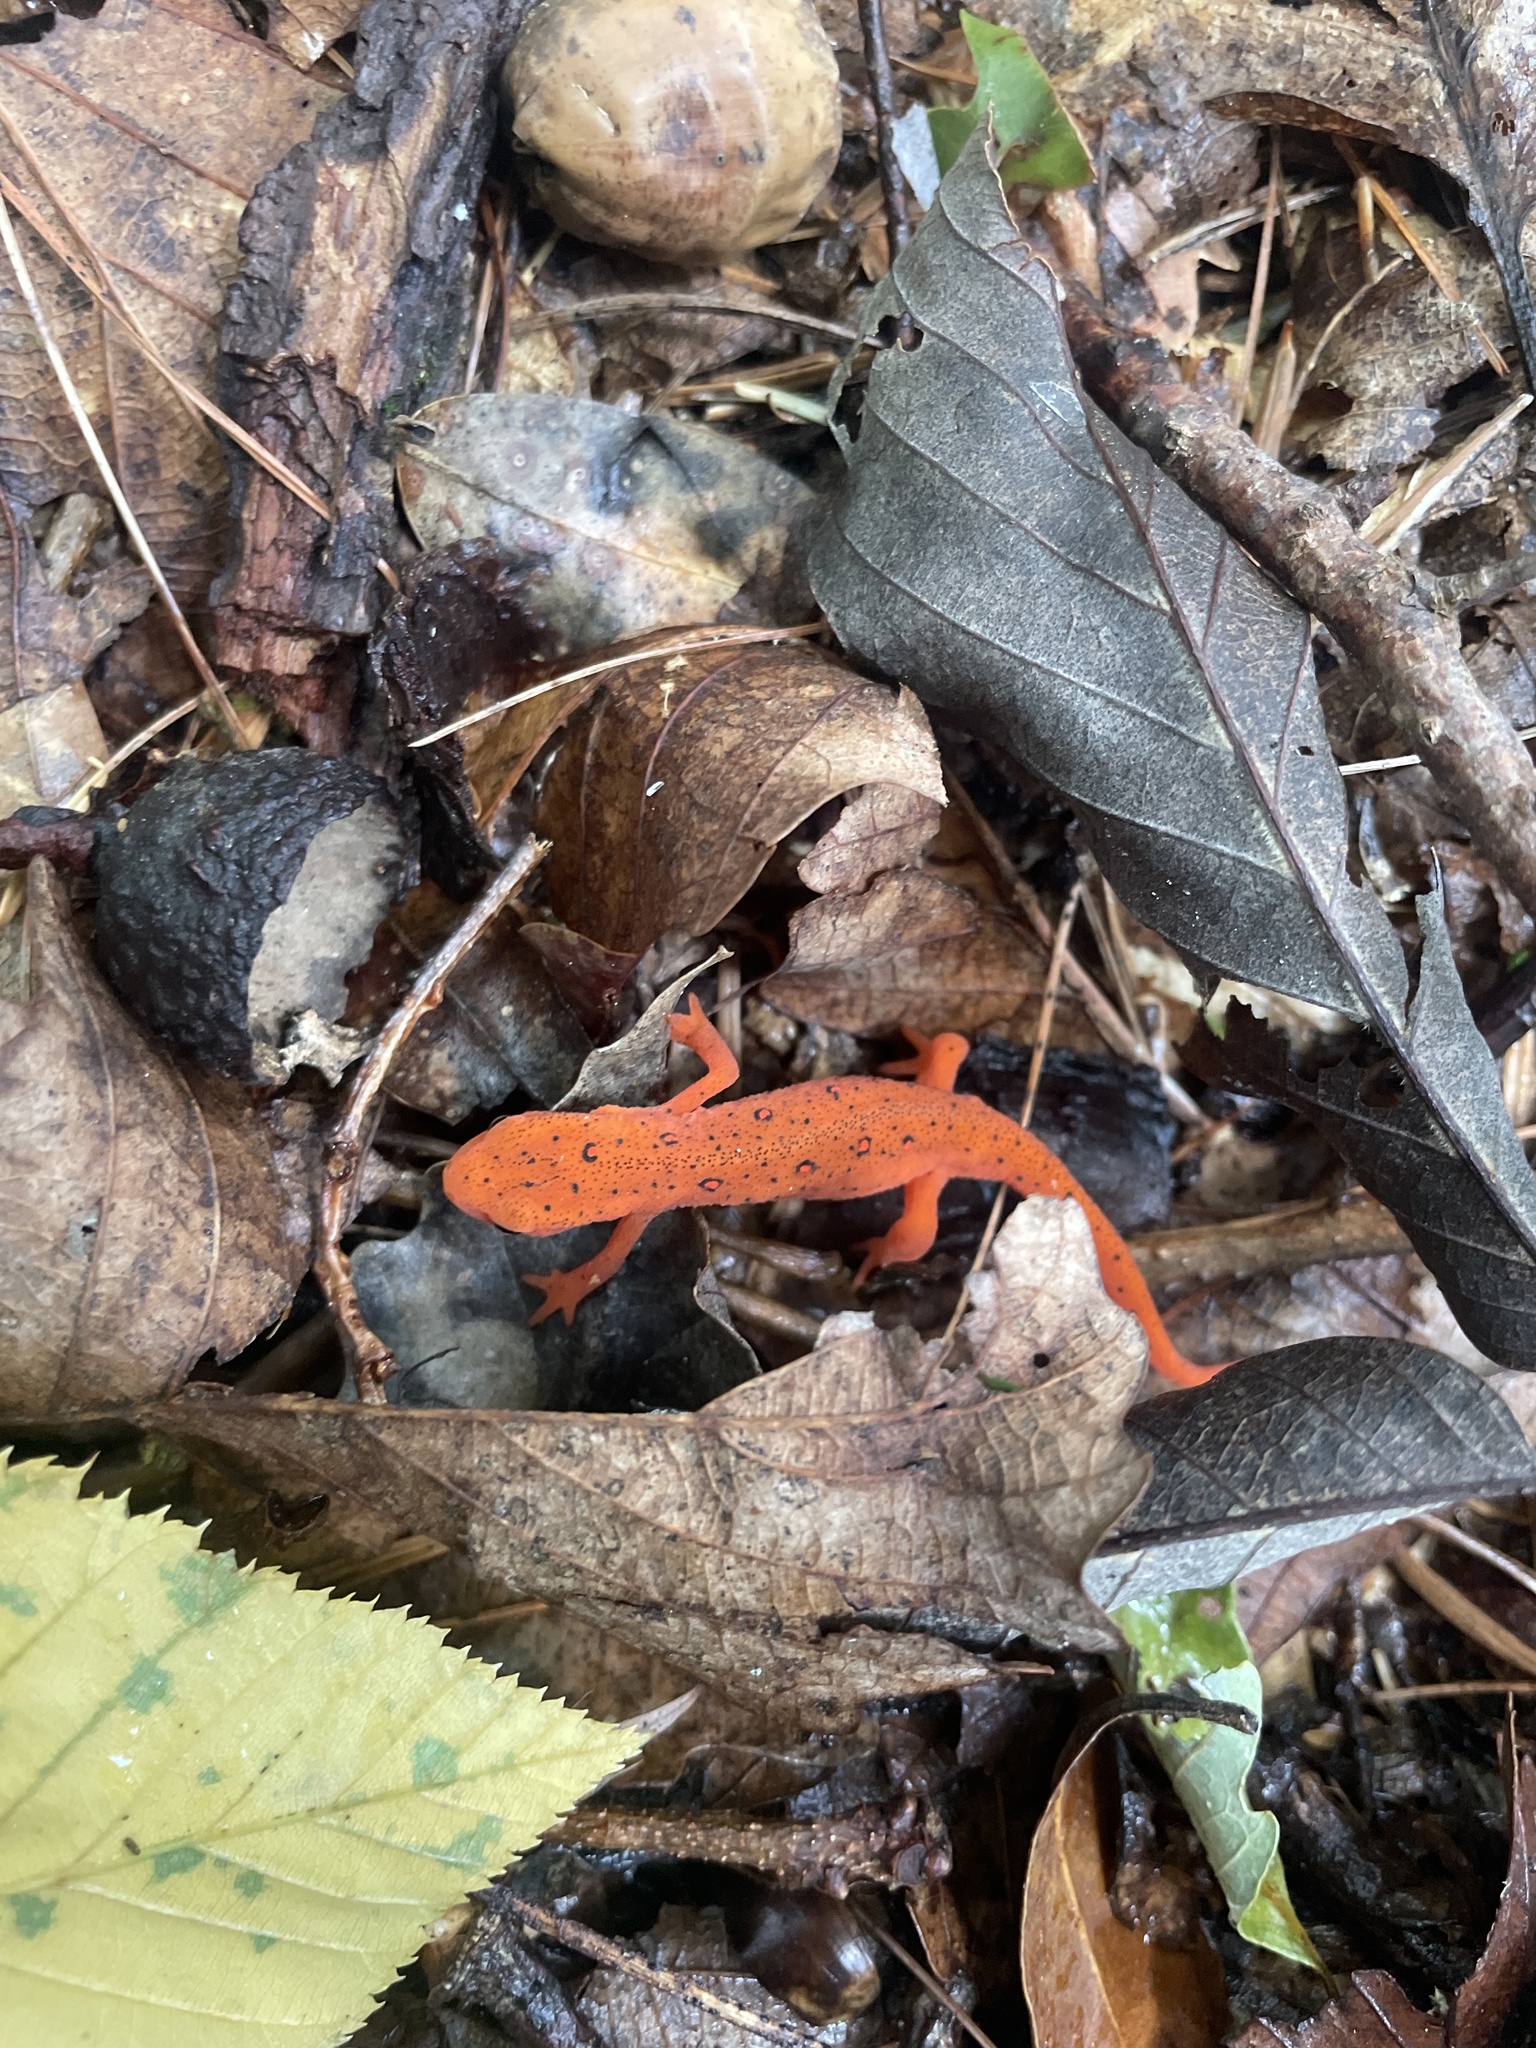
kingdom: Animalia
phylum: Chordata
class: Amphibia
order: Caudata
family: Salamandridae
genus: Notophthalmus
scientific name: Notophthalmus viridescens
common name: Eastern newt
